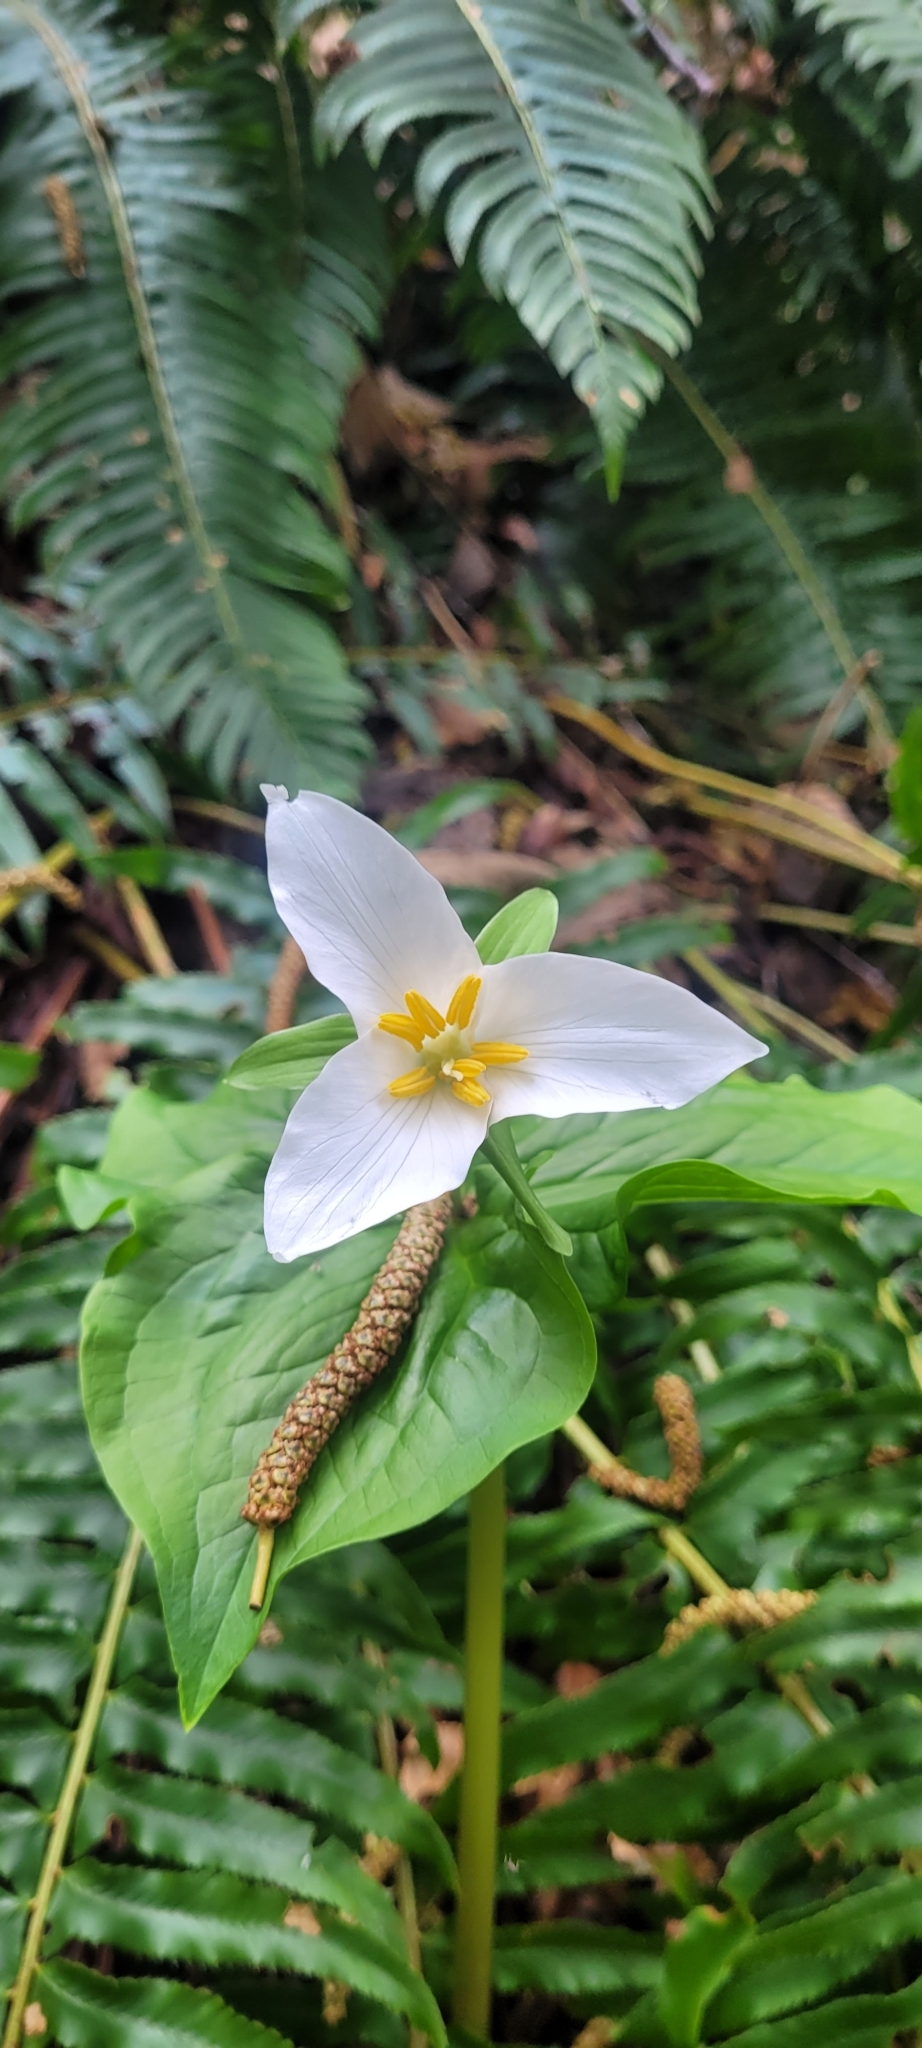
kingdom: Plantae
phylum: Tracheophyta
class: Liliopsida
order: Liliales
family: Melanthiaceae
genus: Trillium
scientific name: Trillium ovatum
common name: Pacific trillium
